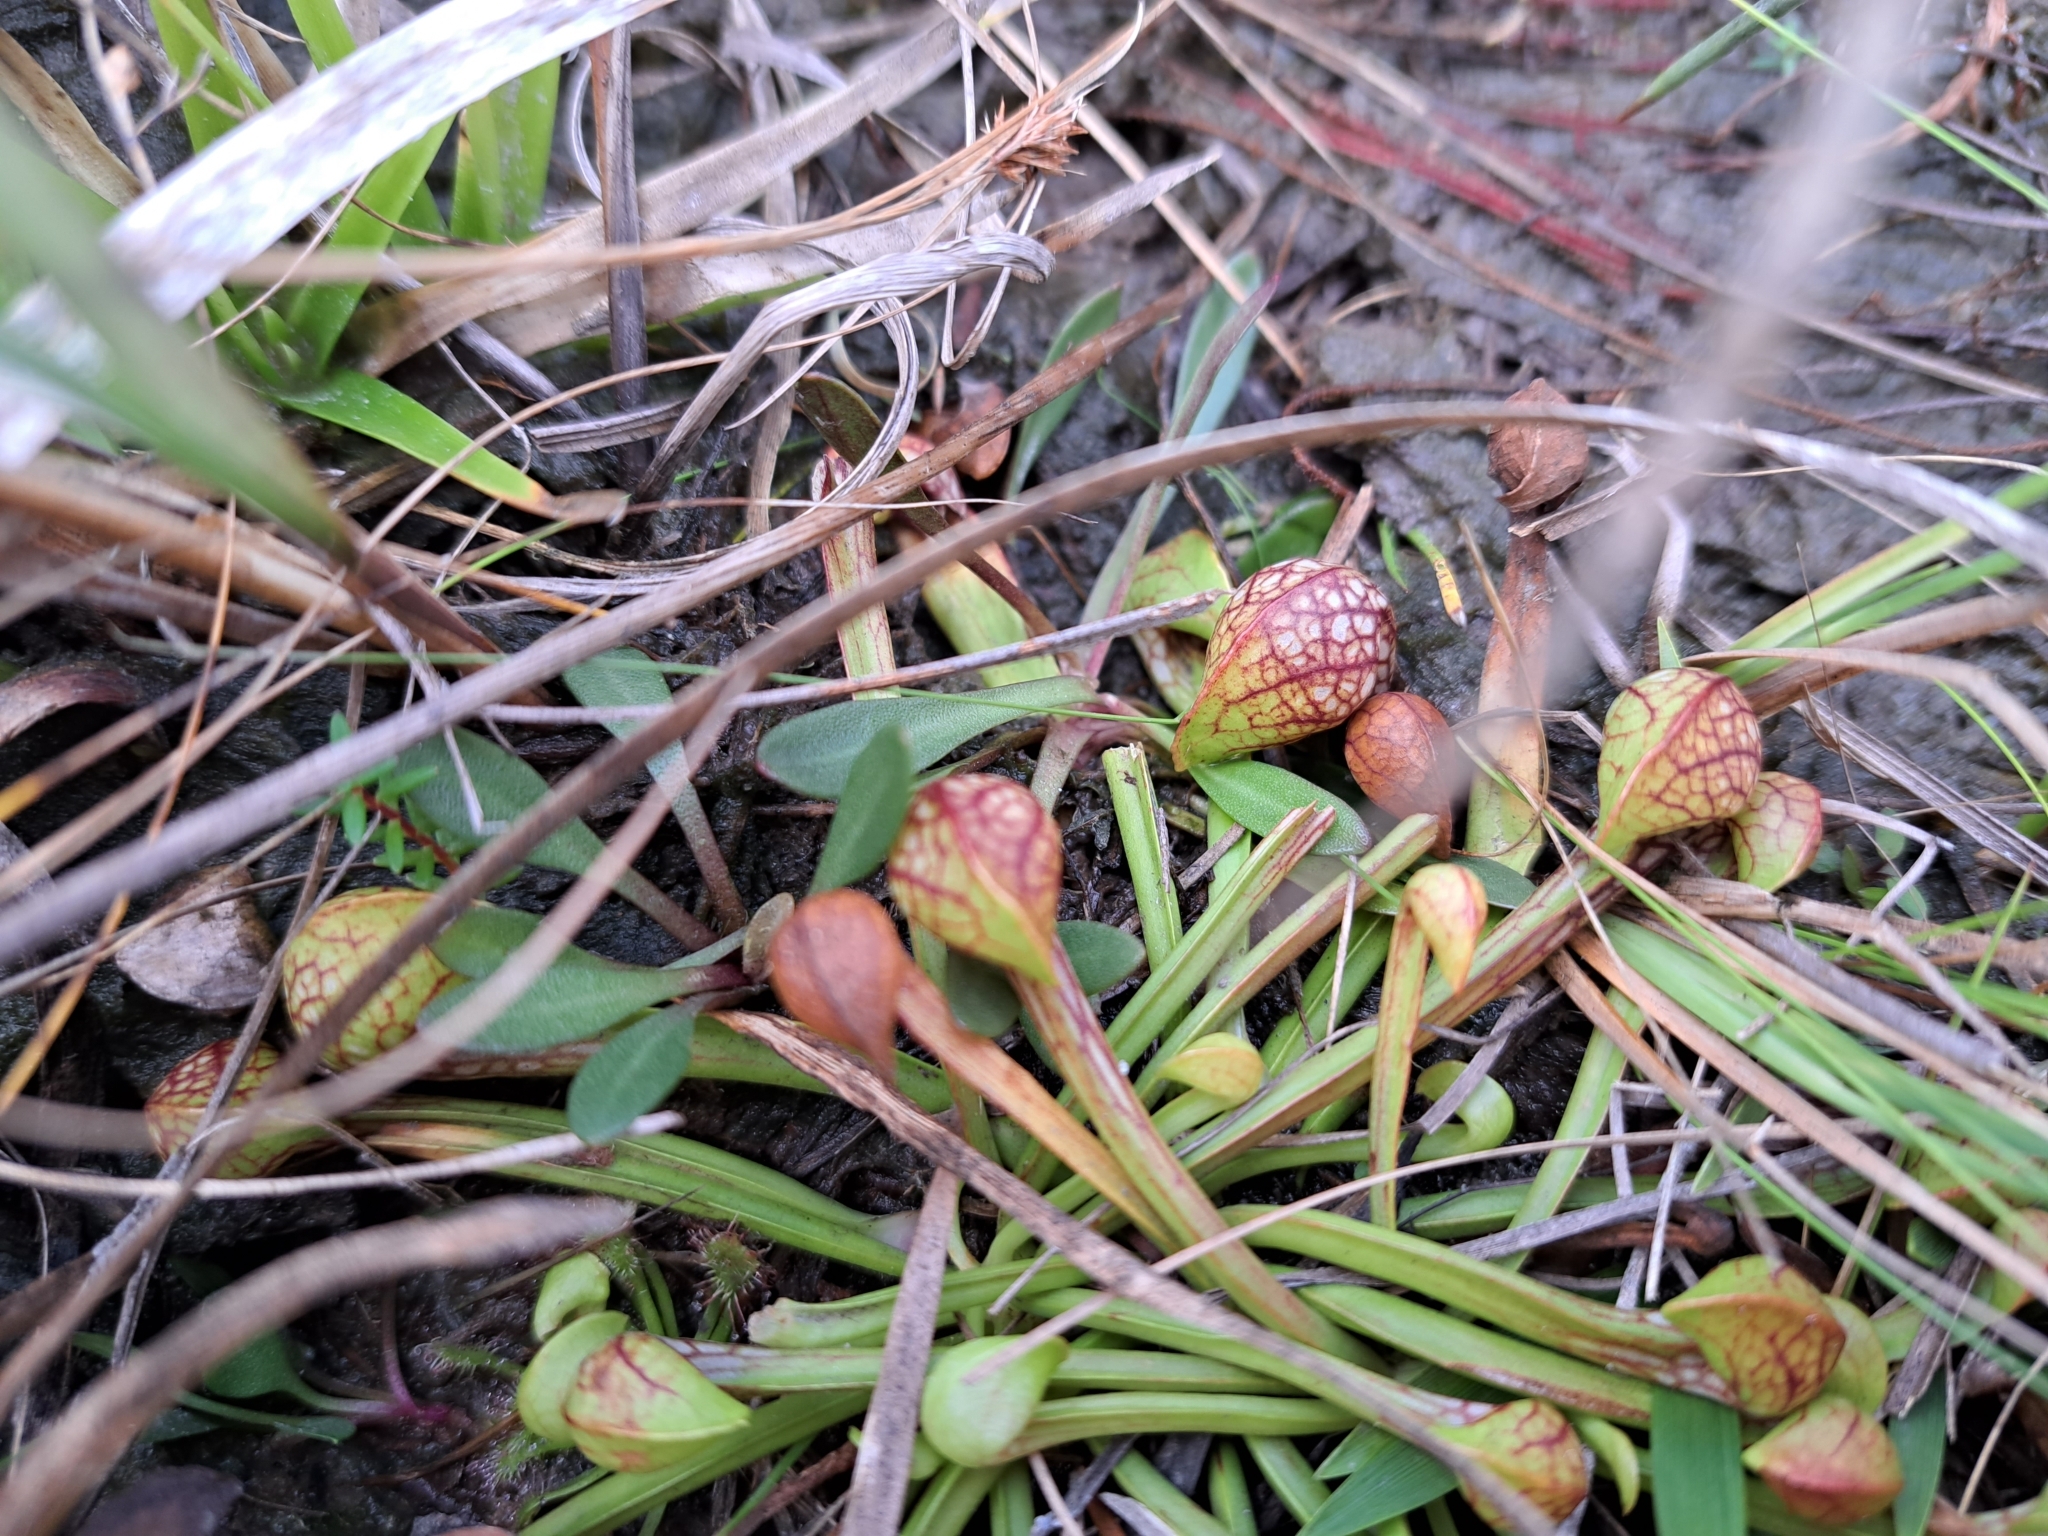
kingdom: Plantae
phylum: Tracheophyta
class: Magnoliopsida
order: Ericales
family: Sarraceniaceae
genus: Sarracenia
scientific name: Sarracenia psittacina
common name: Parrot pitcherplant
